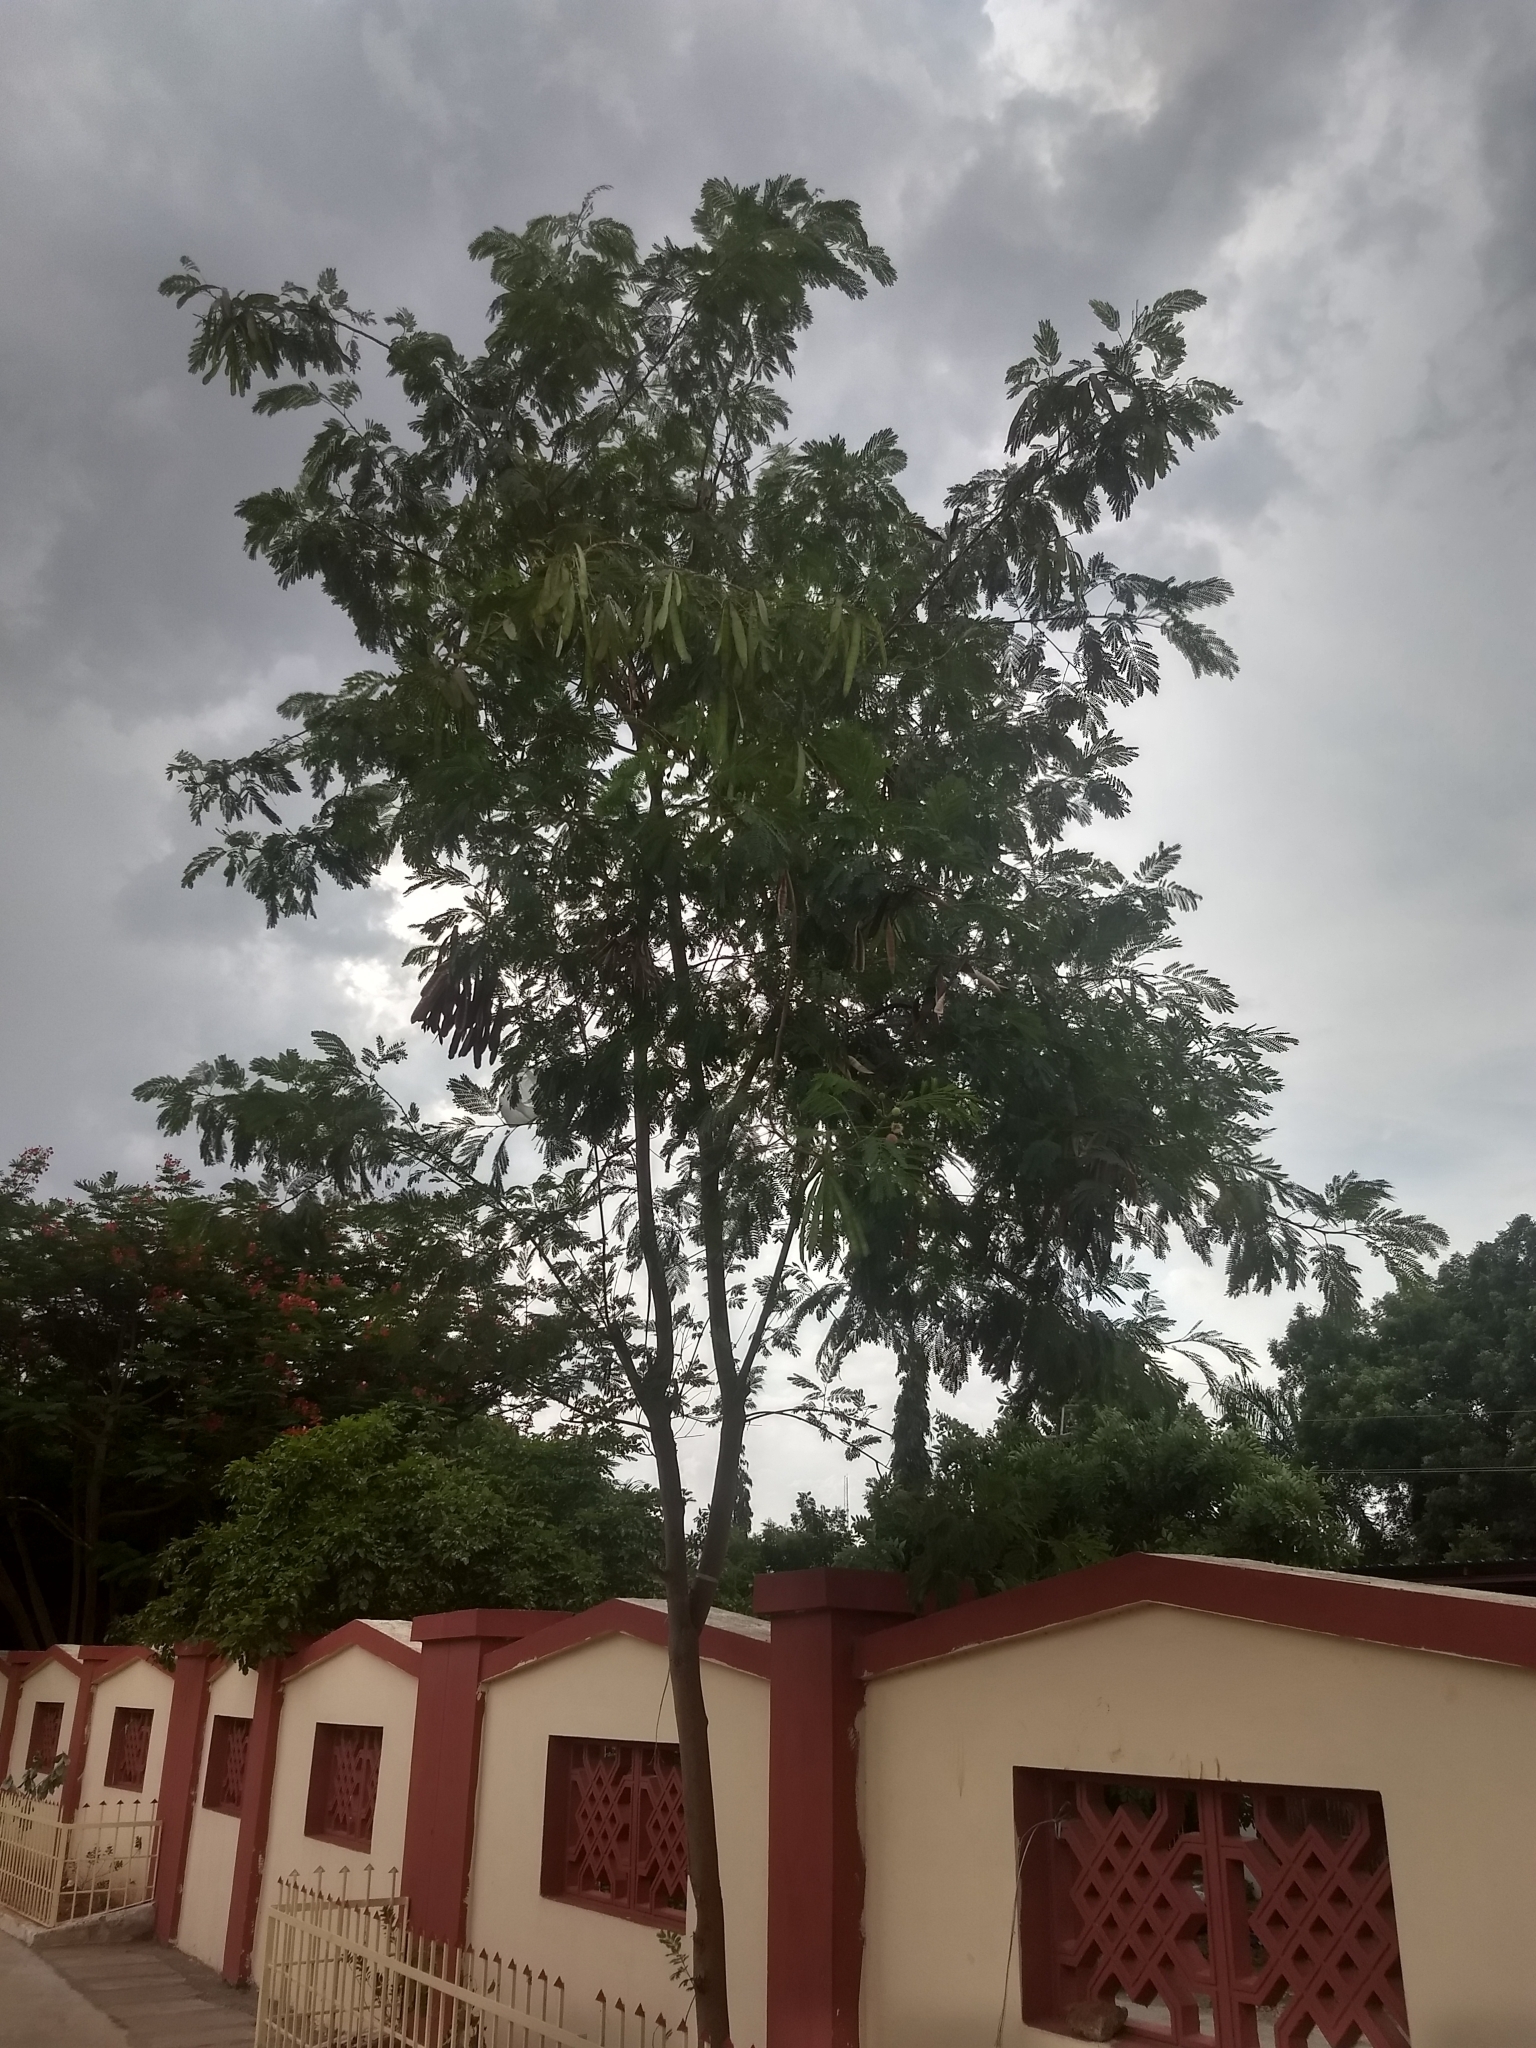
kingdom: Plantae
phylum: Tracheophyta
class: Magnoliopsida
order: Fabales
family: Fabaceae
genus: Leucaena
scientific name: Leucaena leucocephala
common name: White leadtree
